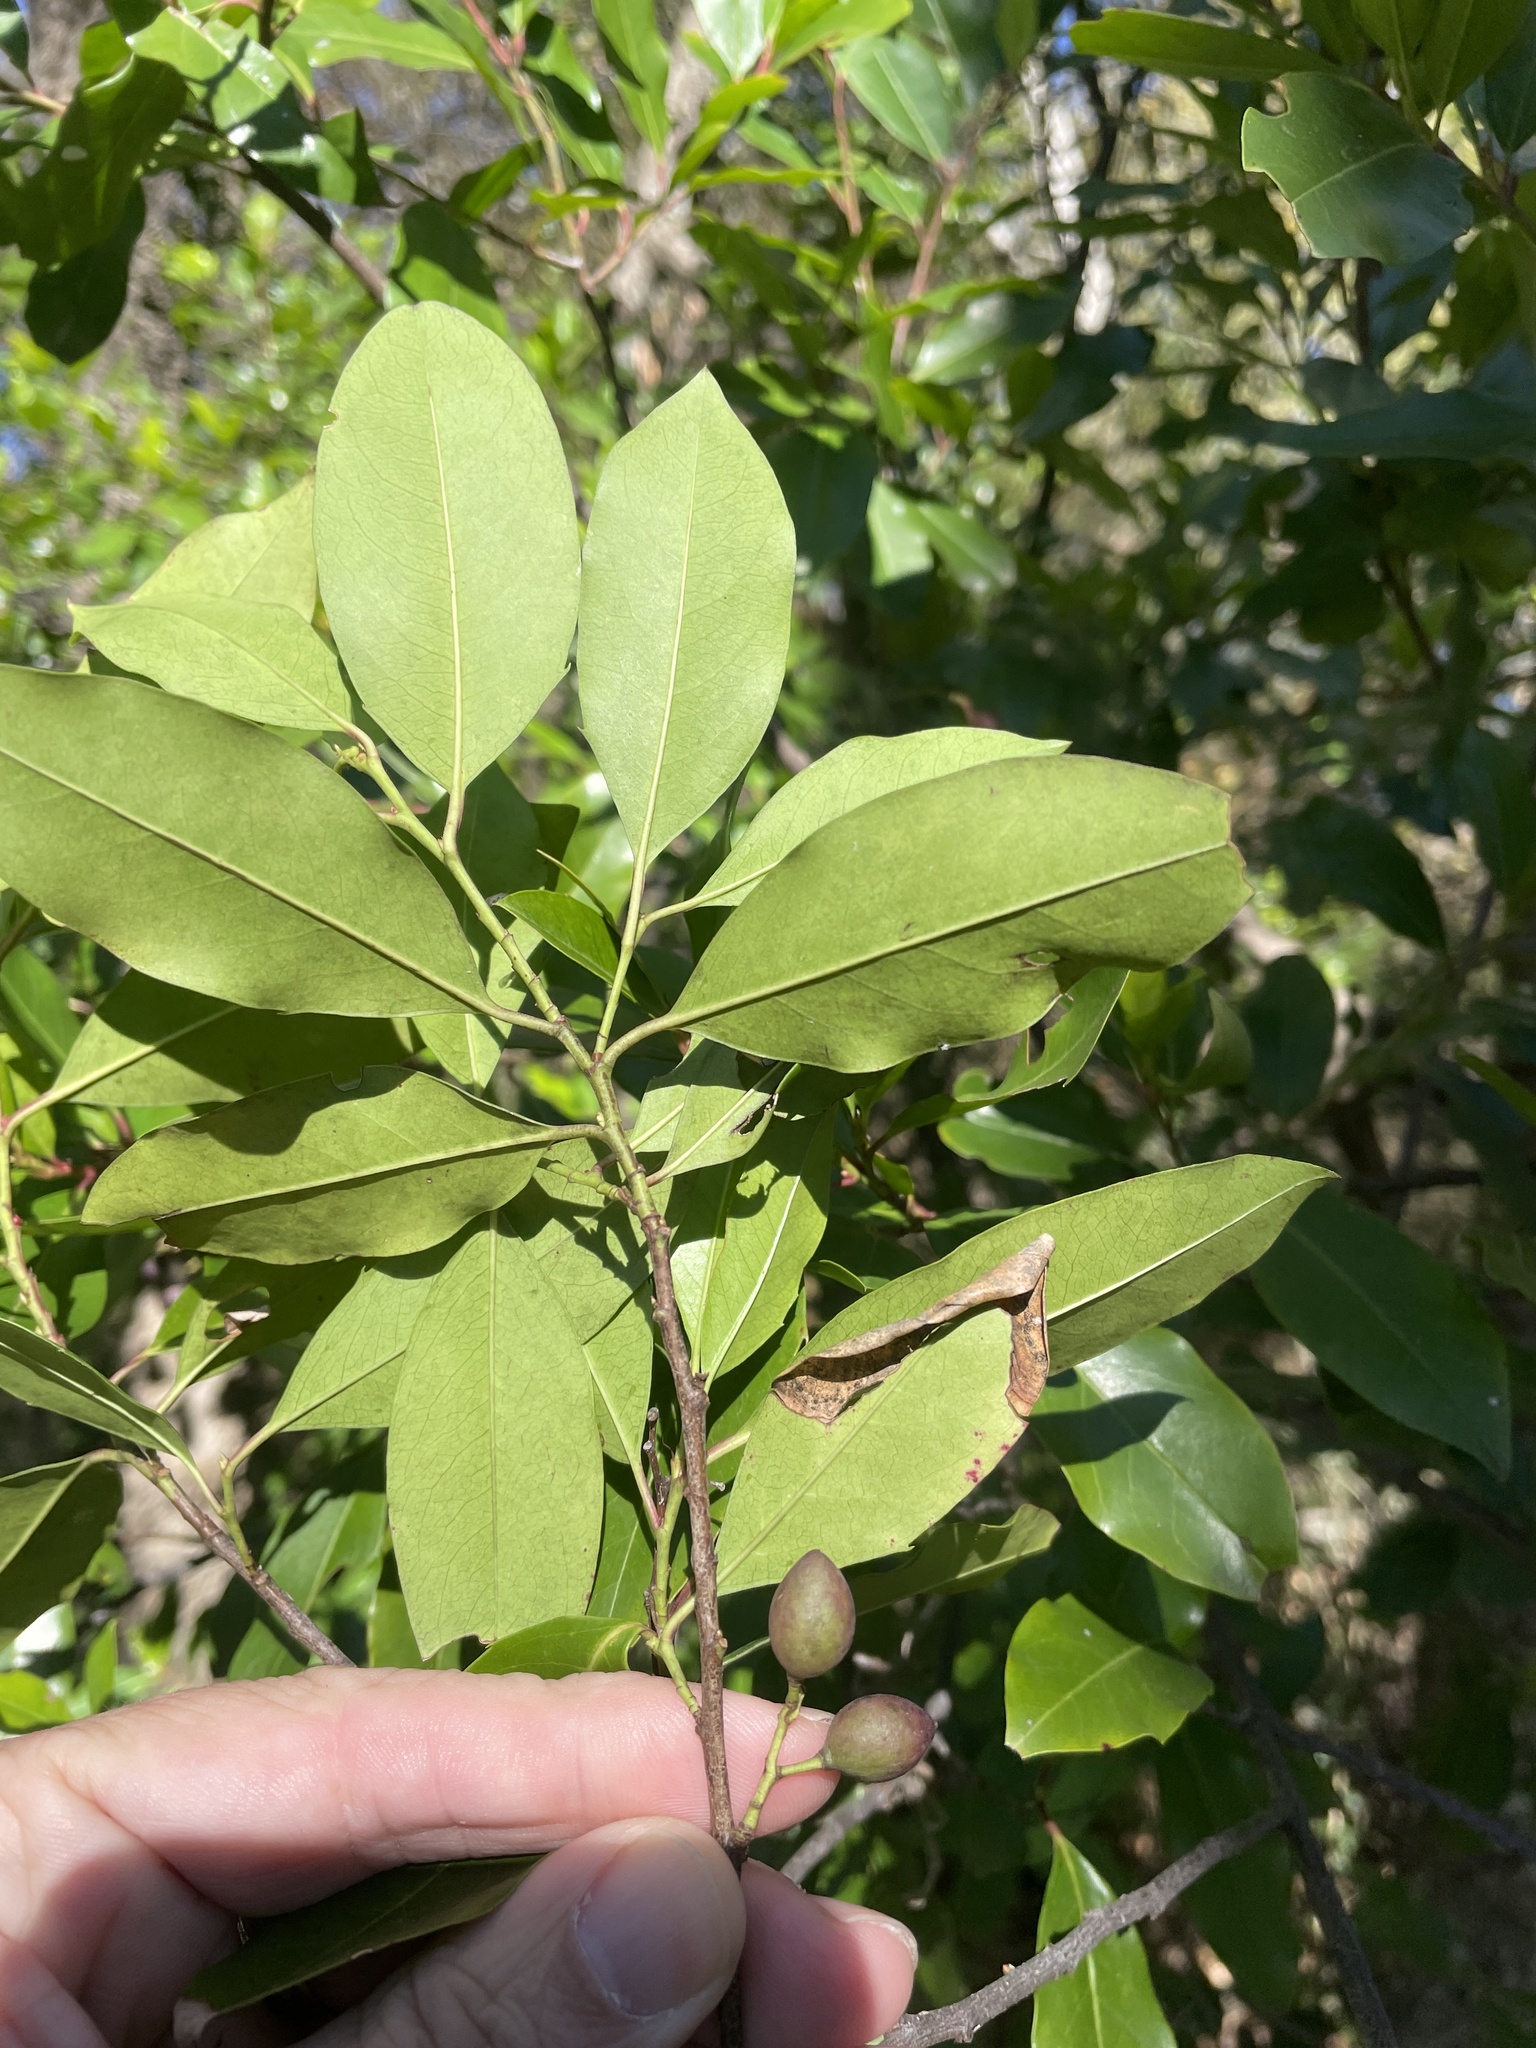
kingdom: Plantae
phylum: Tracheophyta
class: Magnoliopsida
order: Rosales
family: Rosaceae
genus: Prunus
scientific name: Prunus caroliniana
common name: Carolina laurel cherry
